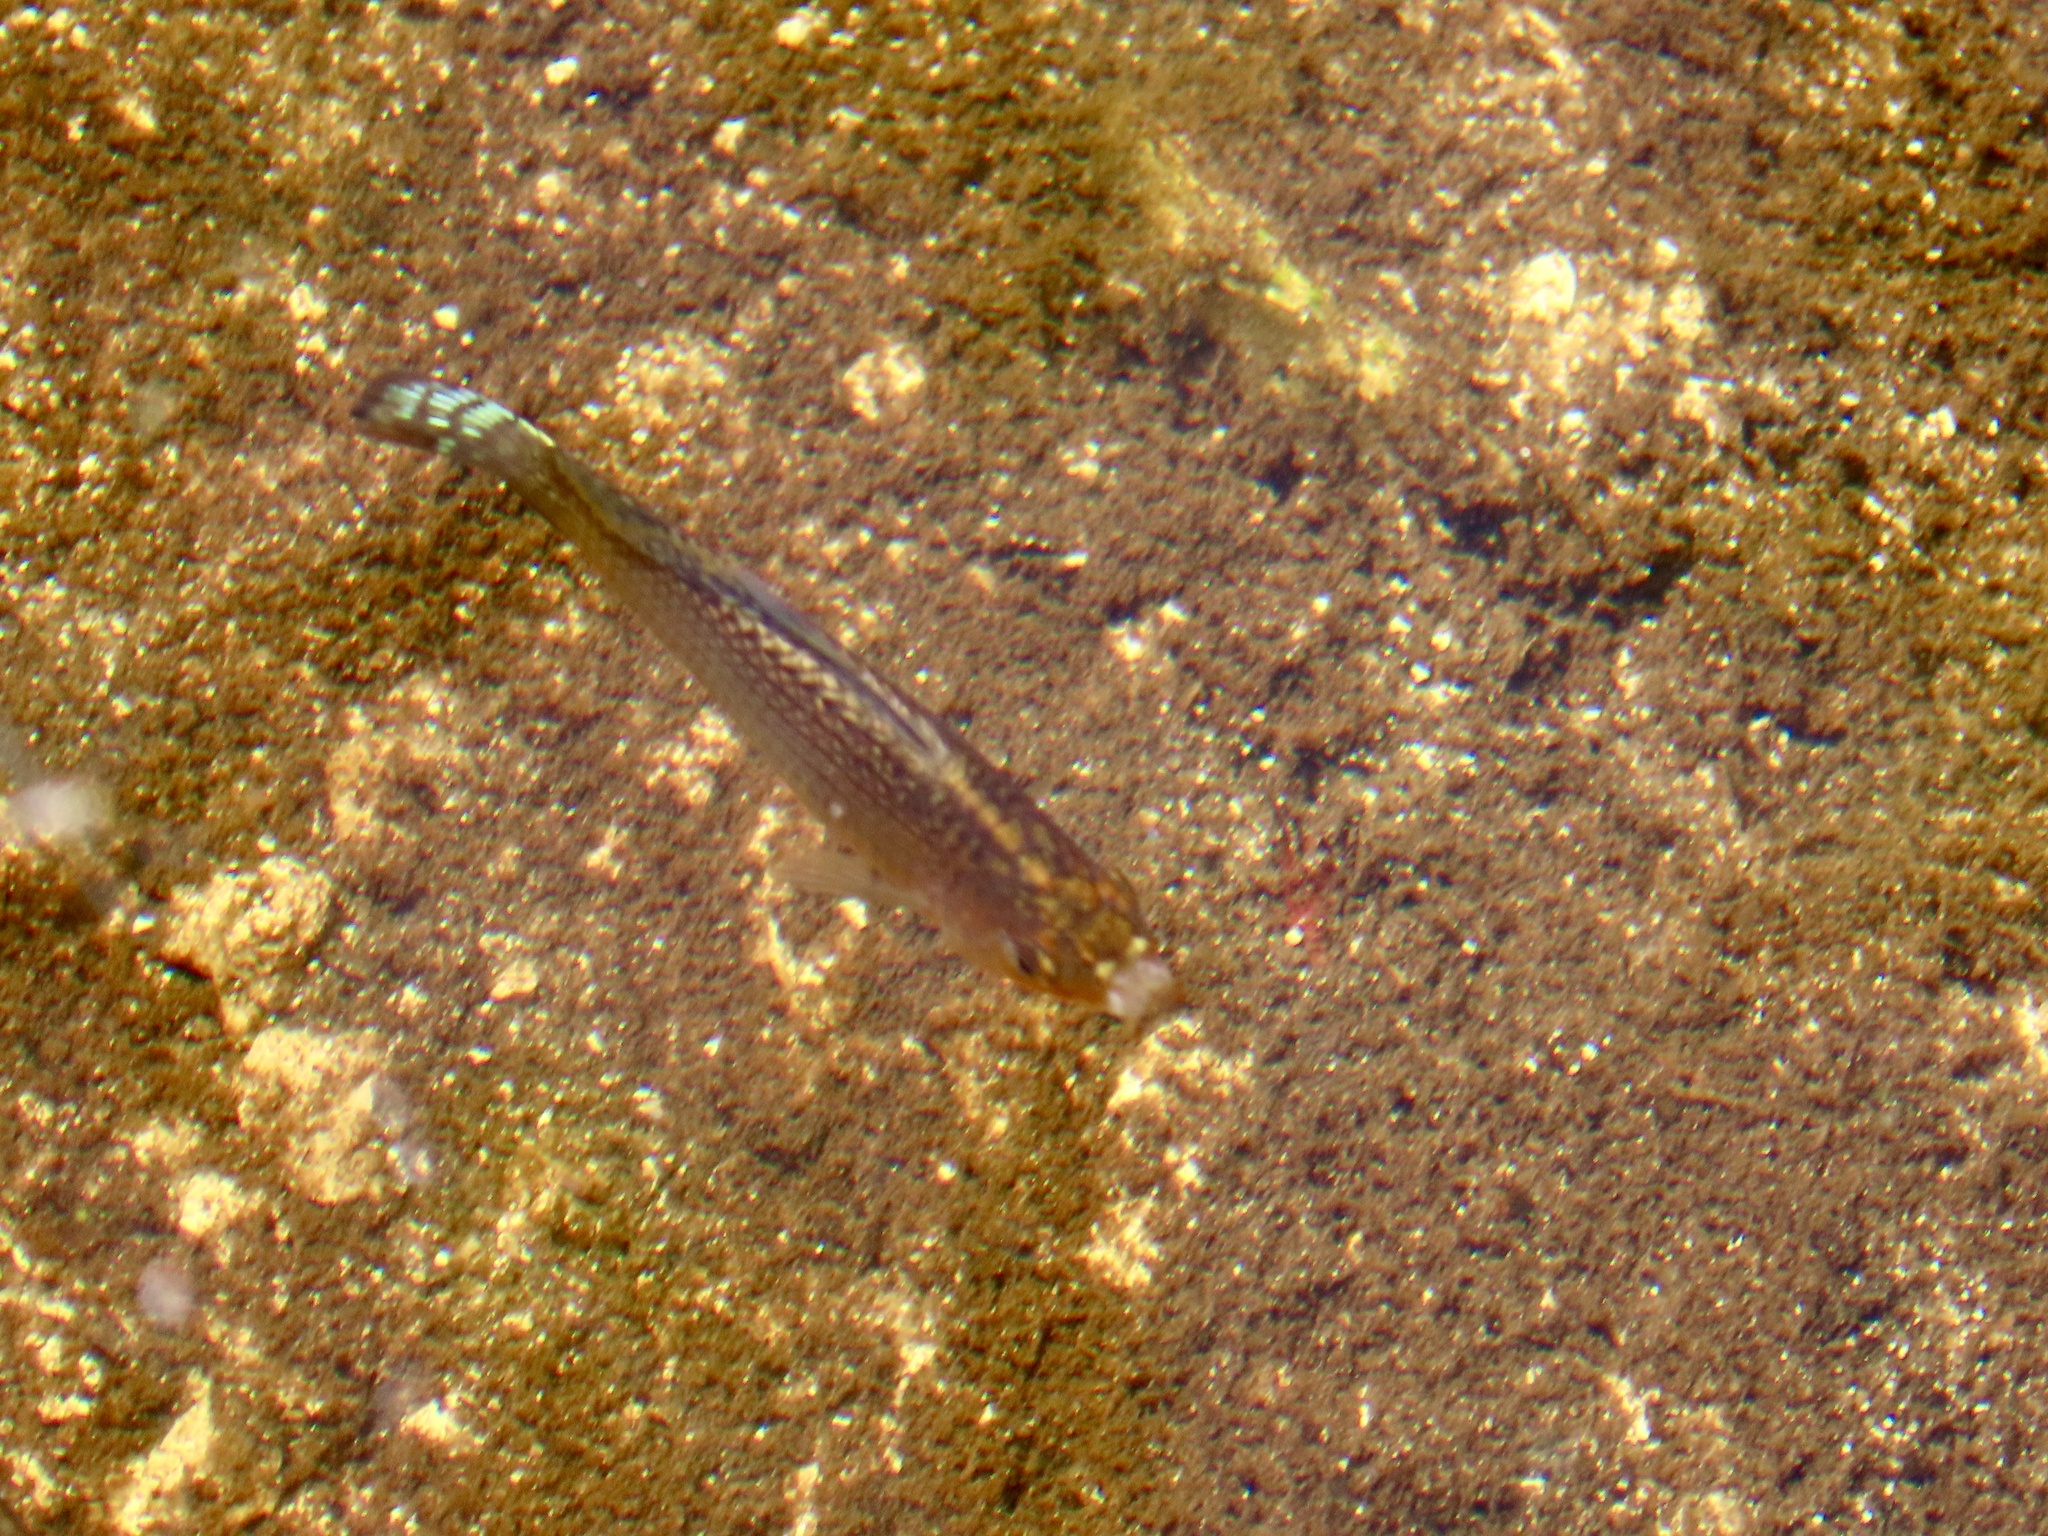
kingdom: Animalia
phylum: Chordata
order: Cyprinodontiformes
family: Poeciliidae
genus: Poecilia
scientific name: Poecilia latipinna
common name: Sailfin molly
